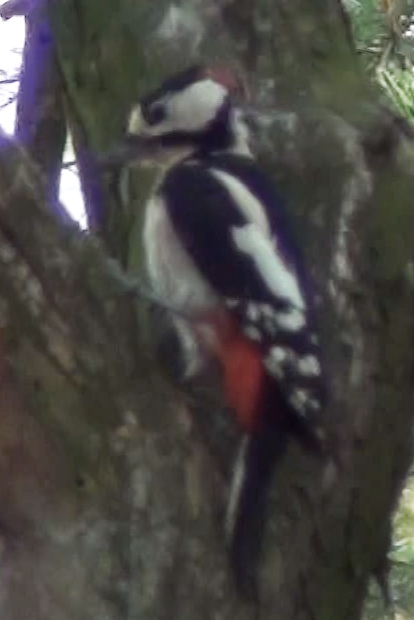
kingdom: Animalia
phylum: Chordata
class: Aves
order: Piciformes
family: Picidae
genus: Dendrocopos
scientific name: Dendrocopos major
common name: Great spotted woodpecker
